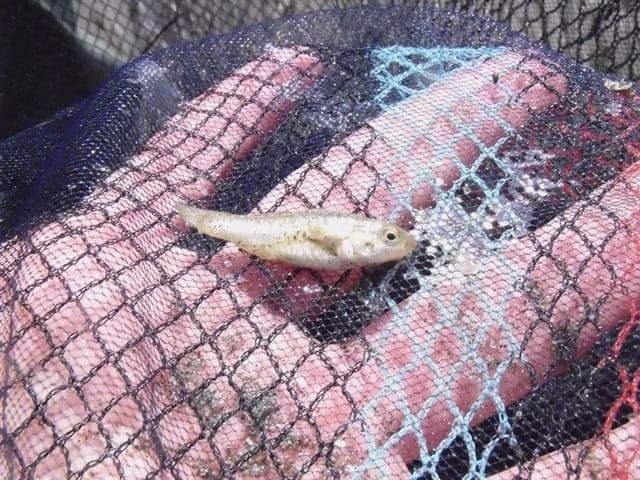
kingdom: Animalia
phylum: Chordata
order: Cyprinodontiformes
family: Cyprinodontidae
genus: Aphanius
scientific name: Aphanius fasciatus
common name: Mediterranean banded killifish
